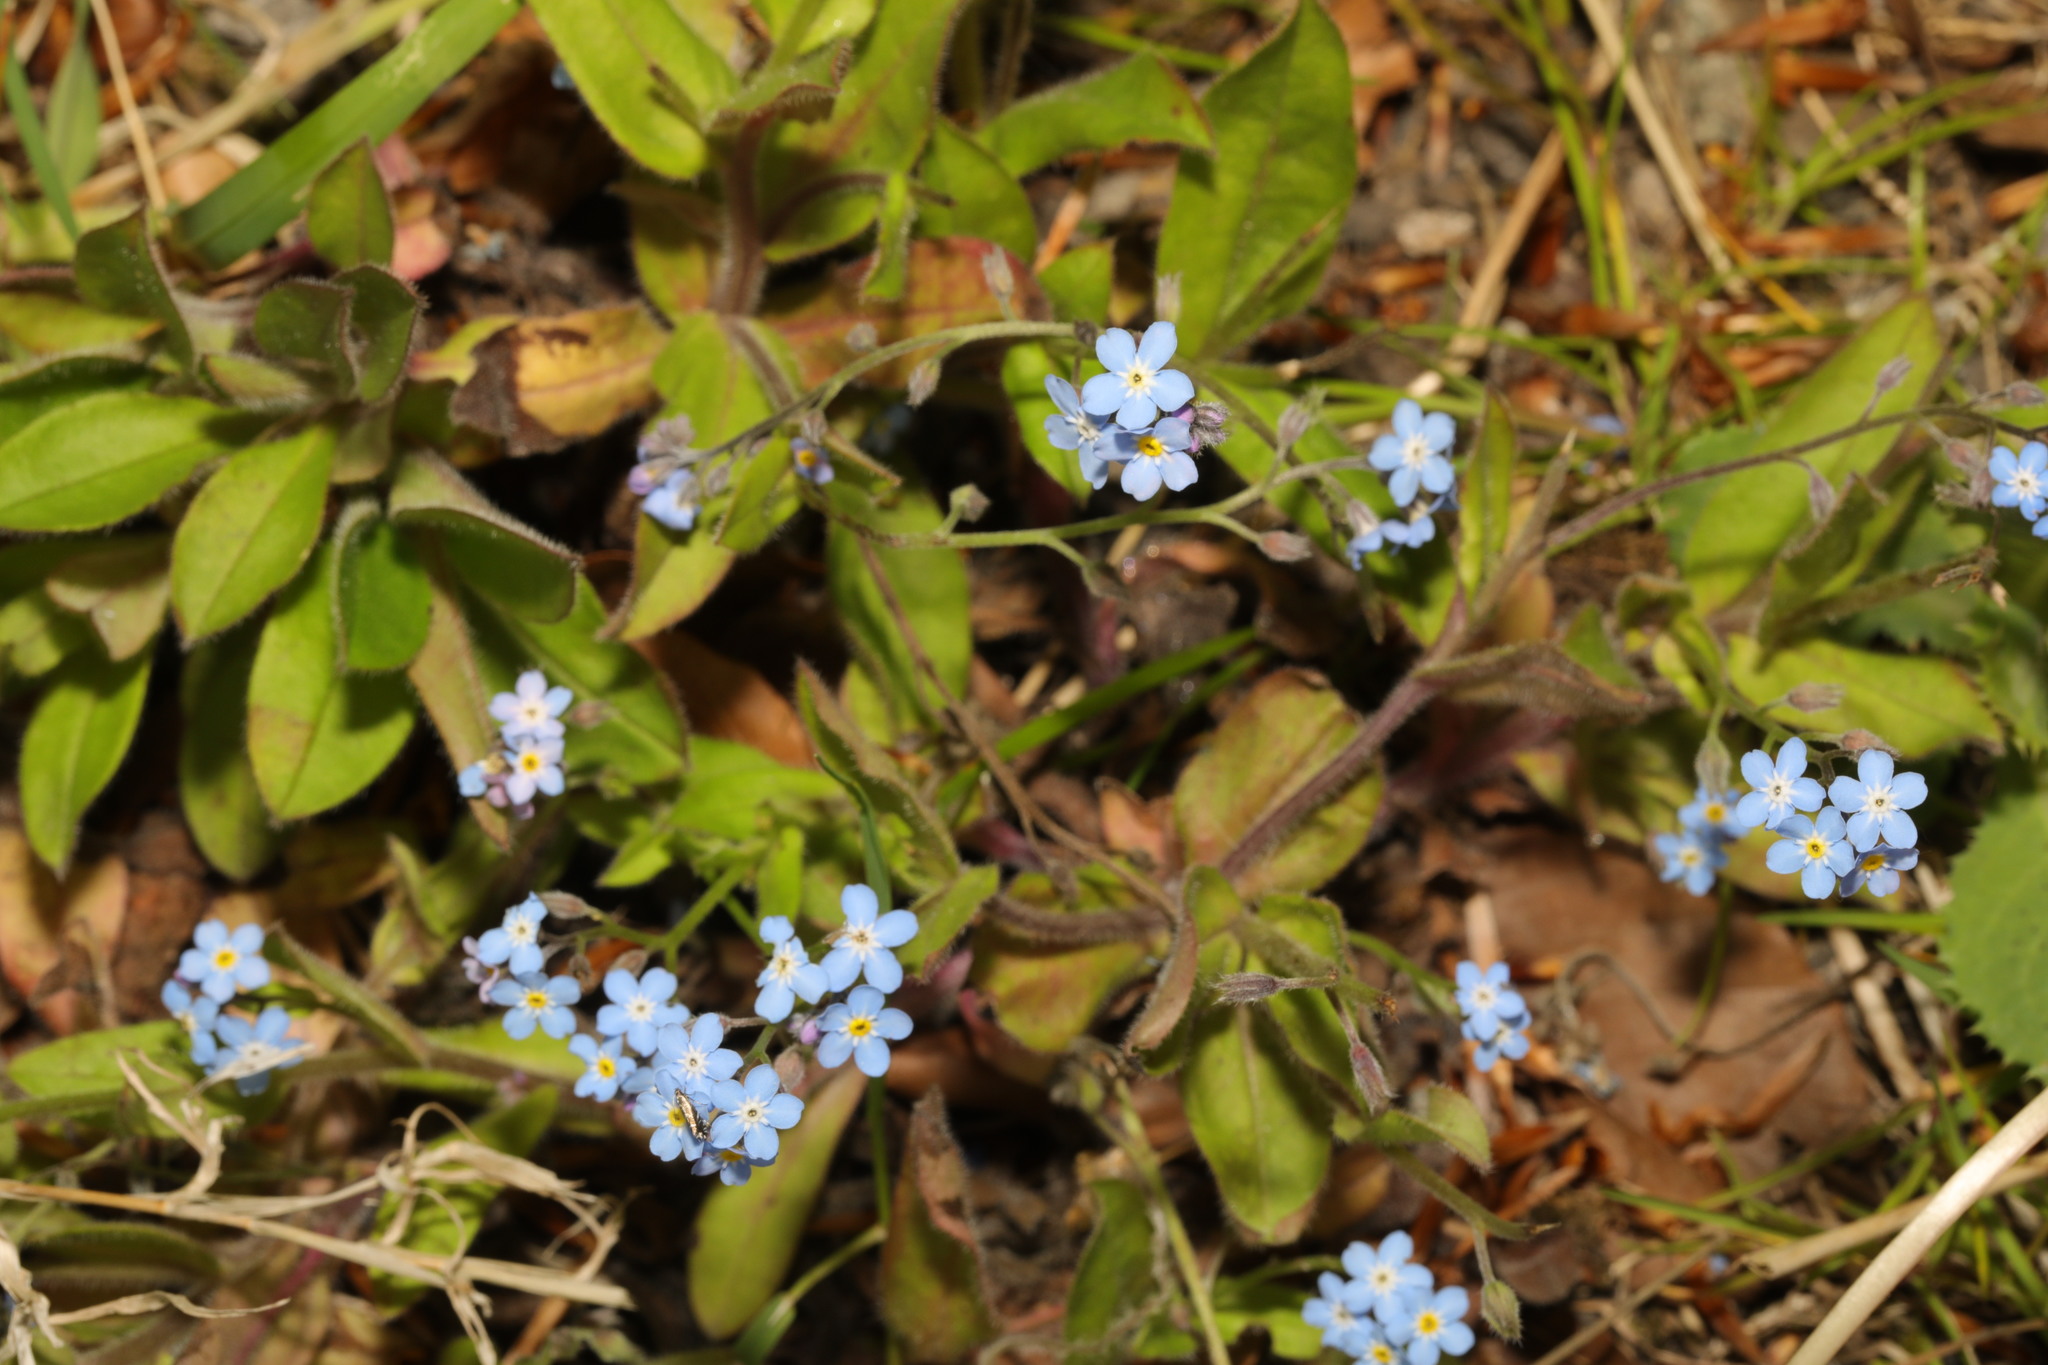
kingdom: Plantae
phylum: Tracheophyta
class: Magnoliopsida
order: Boraginales
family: Boraginaceae
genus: Myosotis
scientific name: Myosotis sylvatica
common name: Wood forget-me-not
